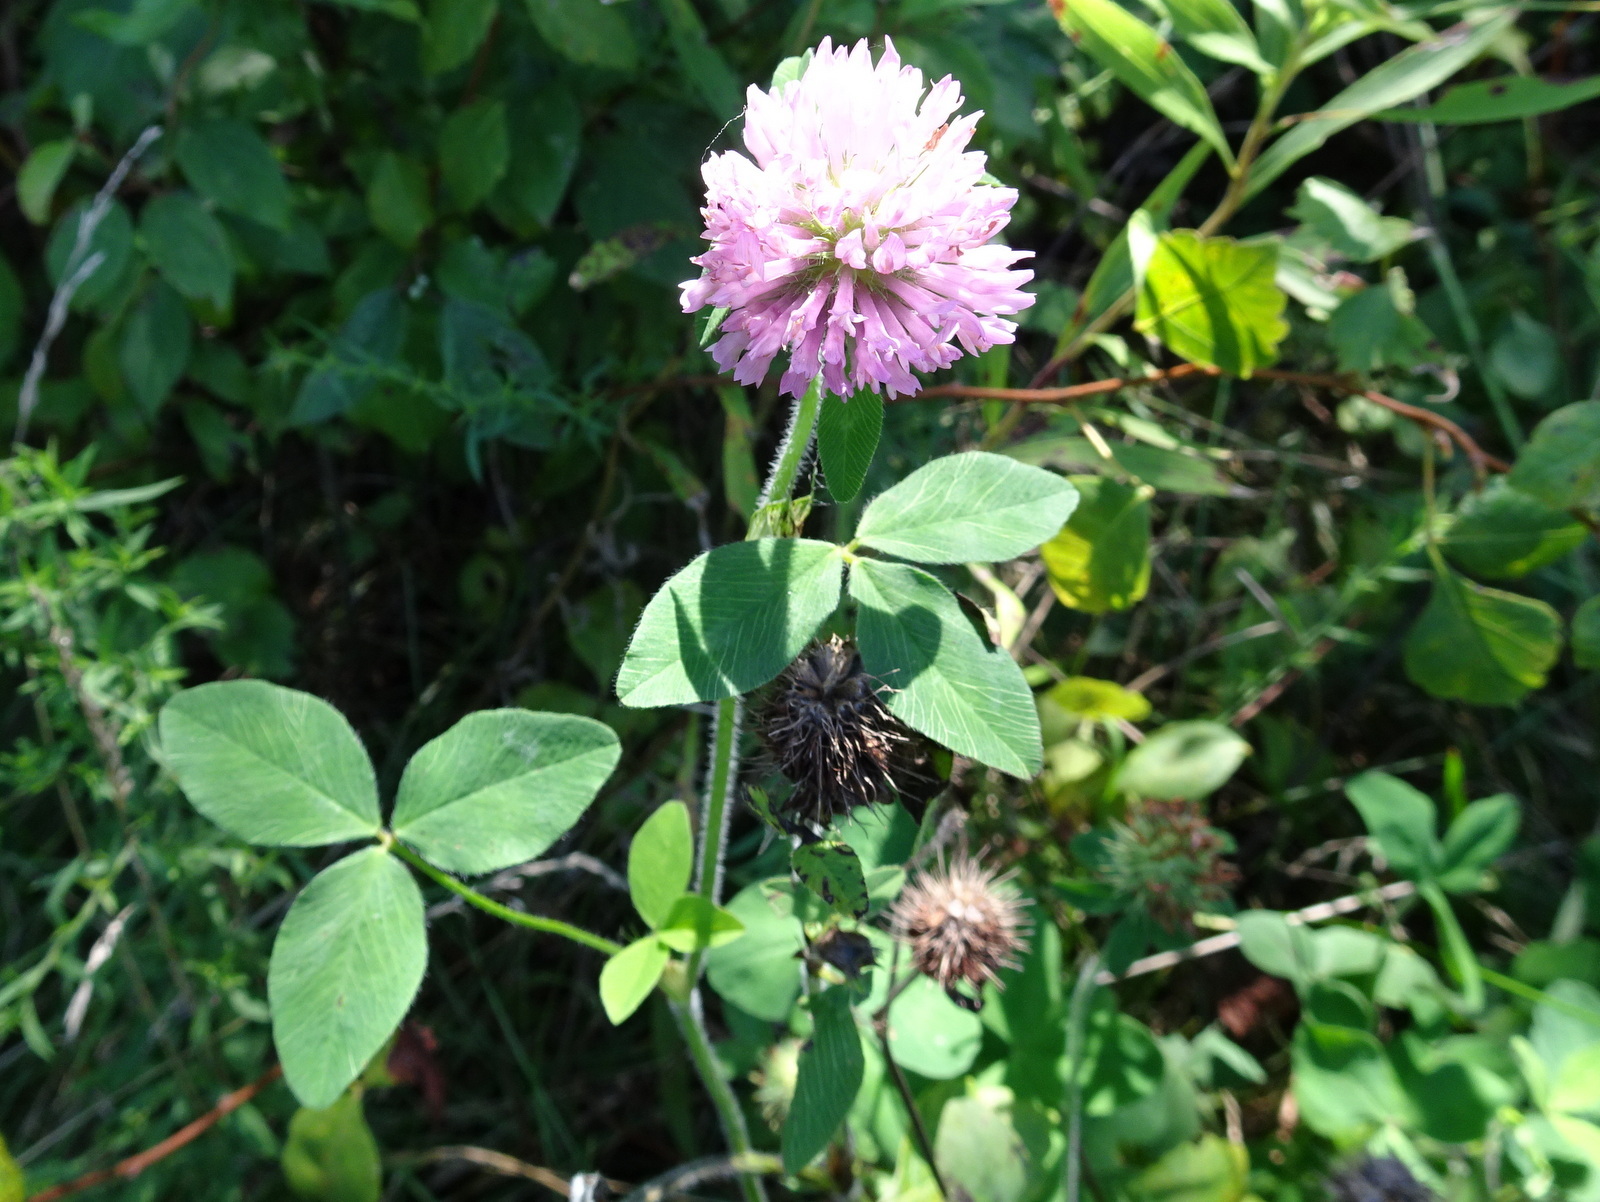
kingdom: Plantae
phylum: Tracheophyta
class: Magnoliopsida
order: Fabales
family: Fabaceae
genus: Trifolium
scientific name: Trifolium pratense
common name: Red clover
